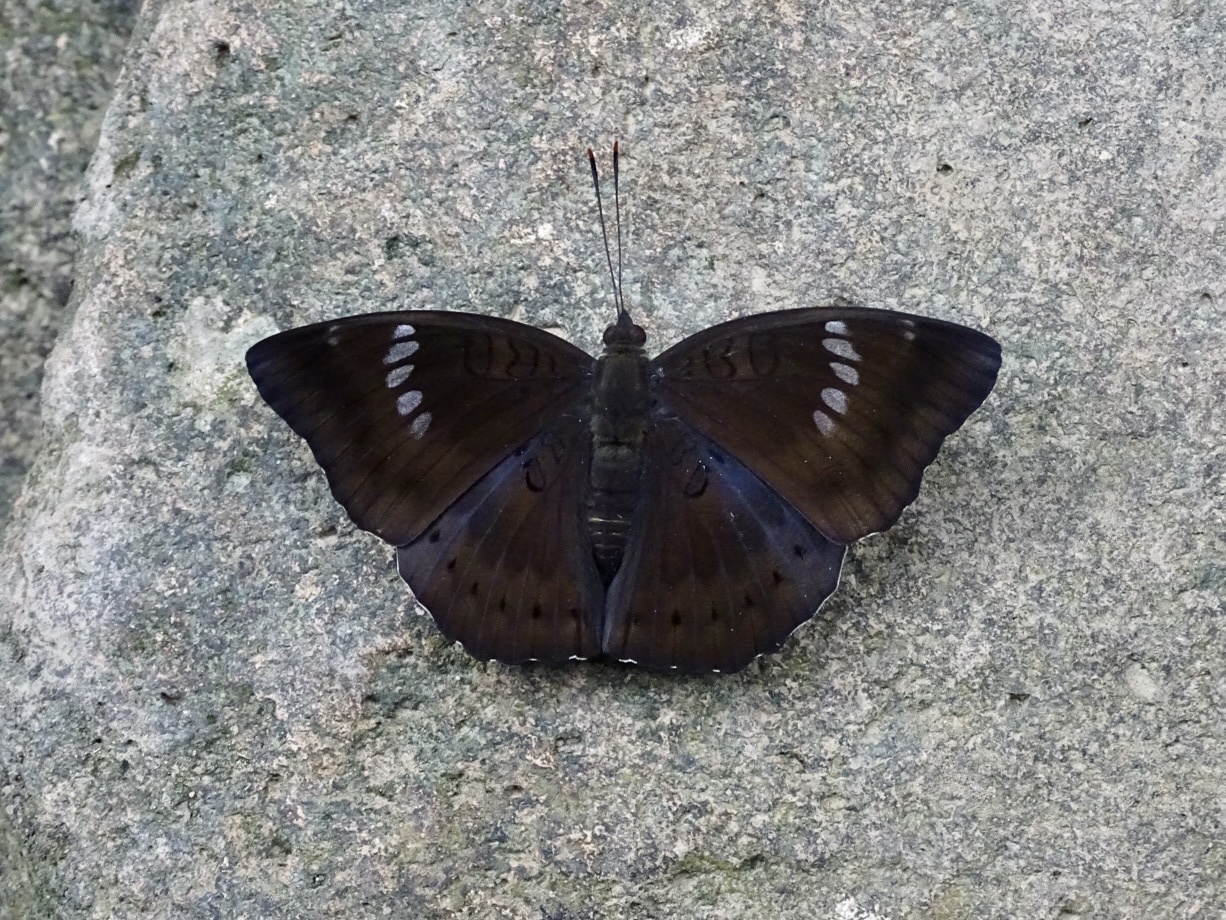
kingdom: Animalia
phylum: Arthropoda
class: Insecta
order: Lepidoptera
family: Nymphalidae
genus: Euthalia
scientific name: Euthalia aconthea
